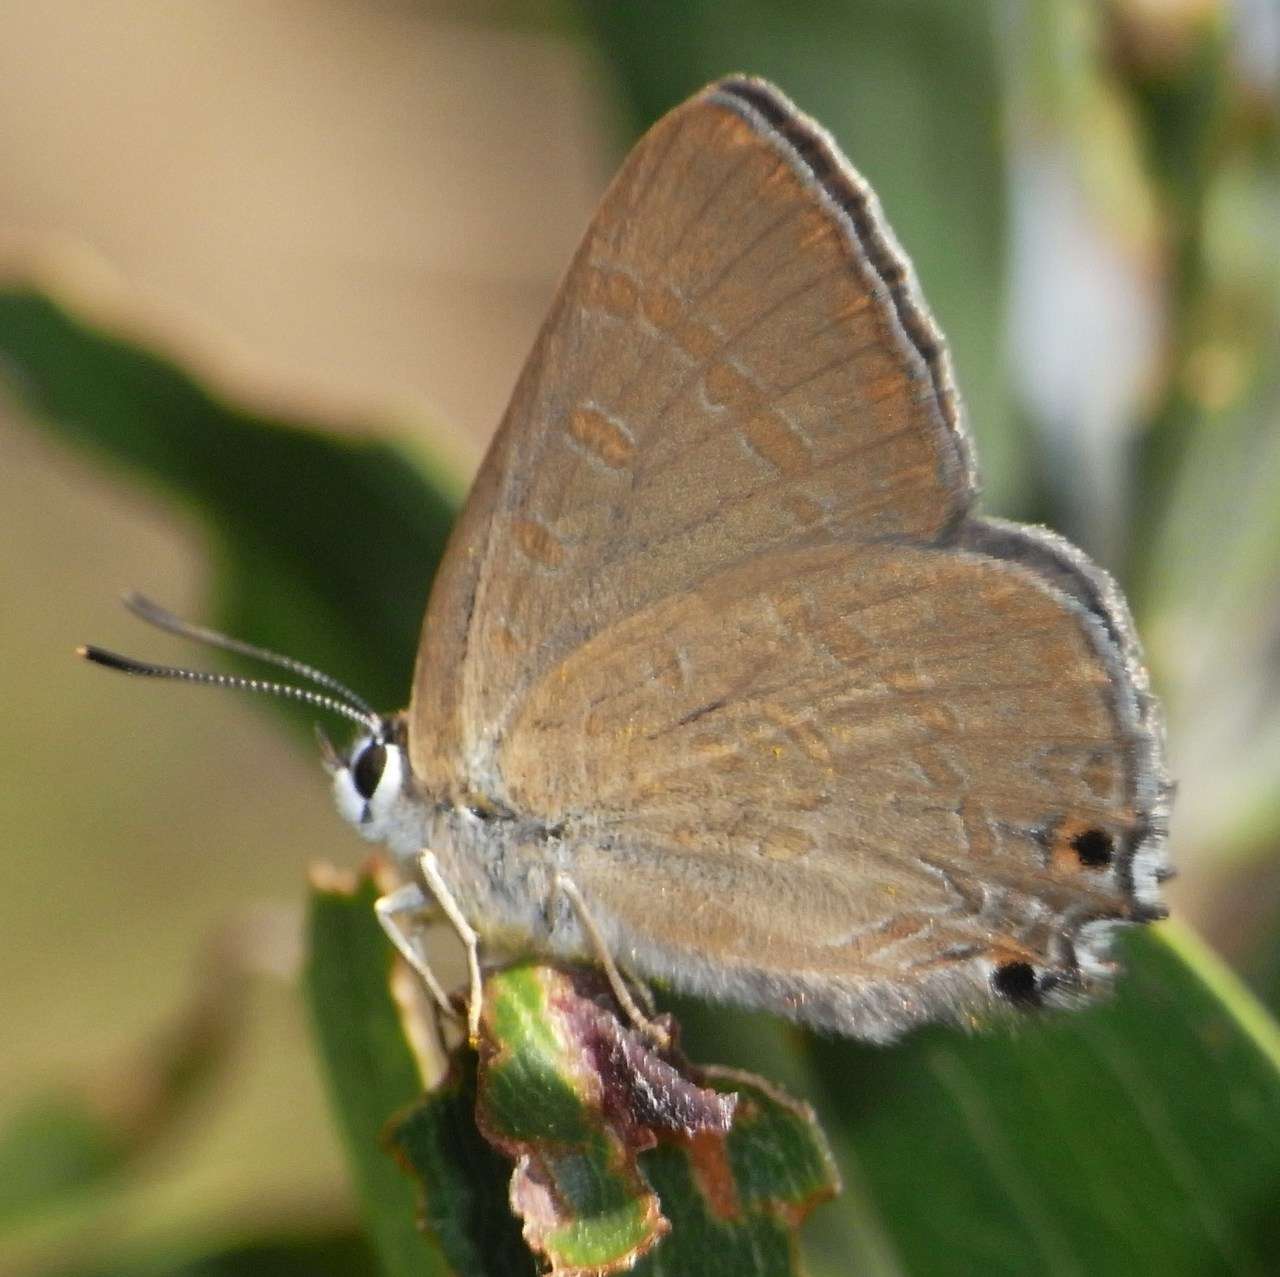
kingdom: Animalia
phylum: Arthropoda
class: Insecta
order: Lepidoptera
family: Lycaenidae
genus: Jalmenus
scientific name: Jalmenus icilius
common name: Amethyst hairstreak
